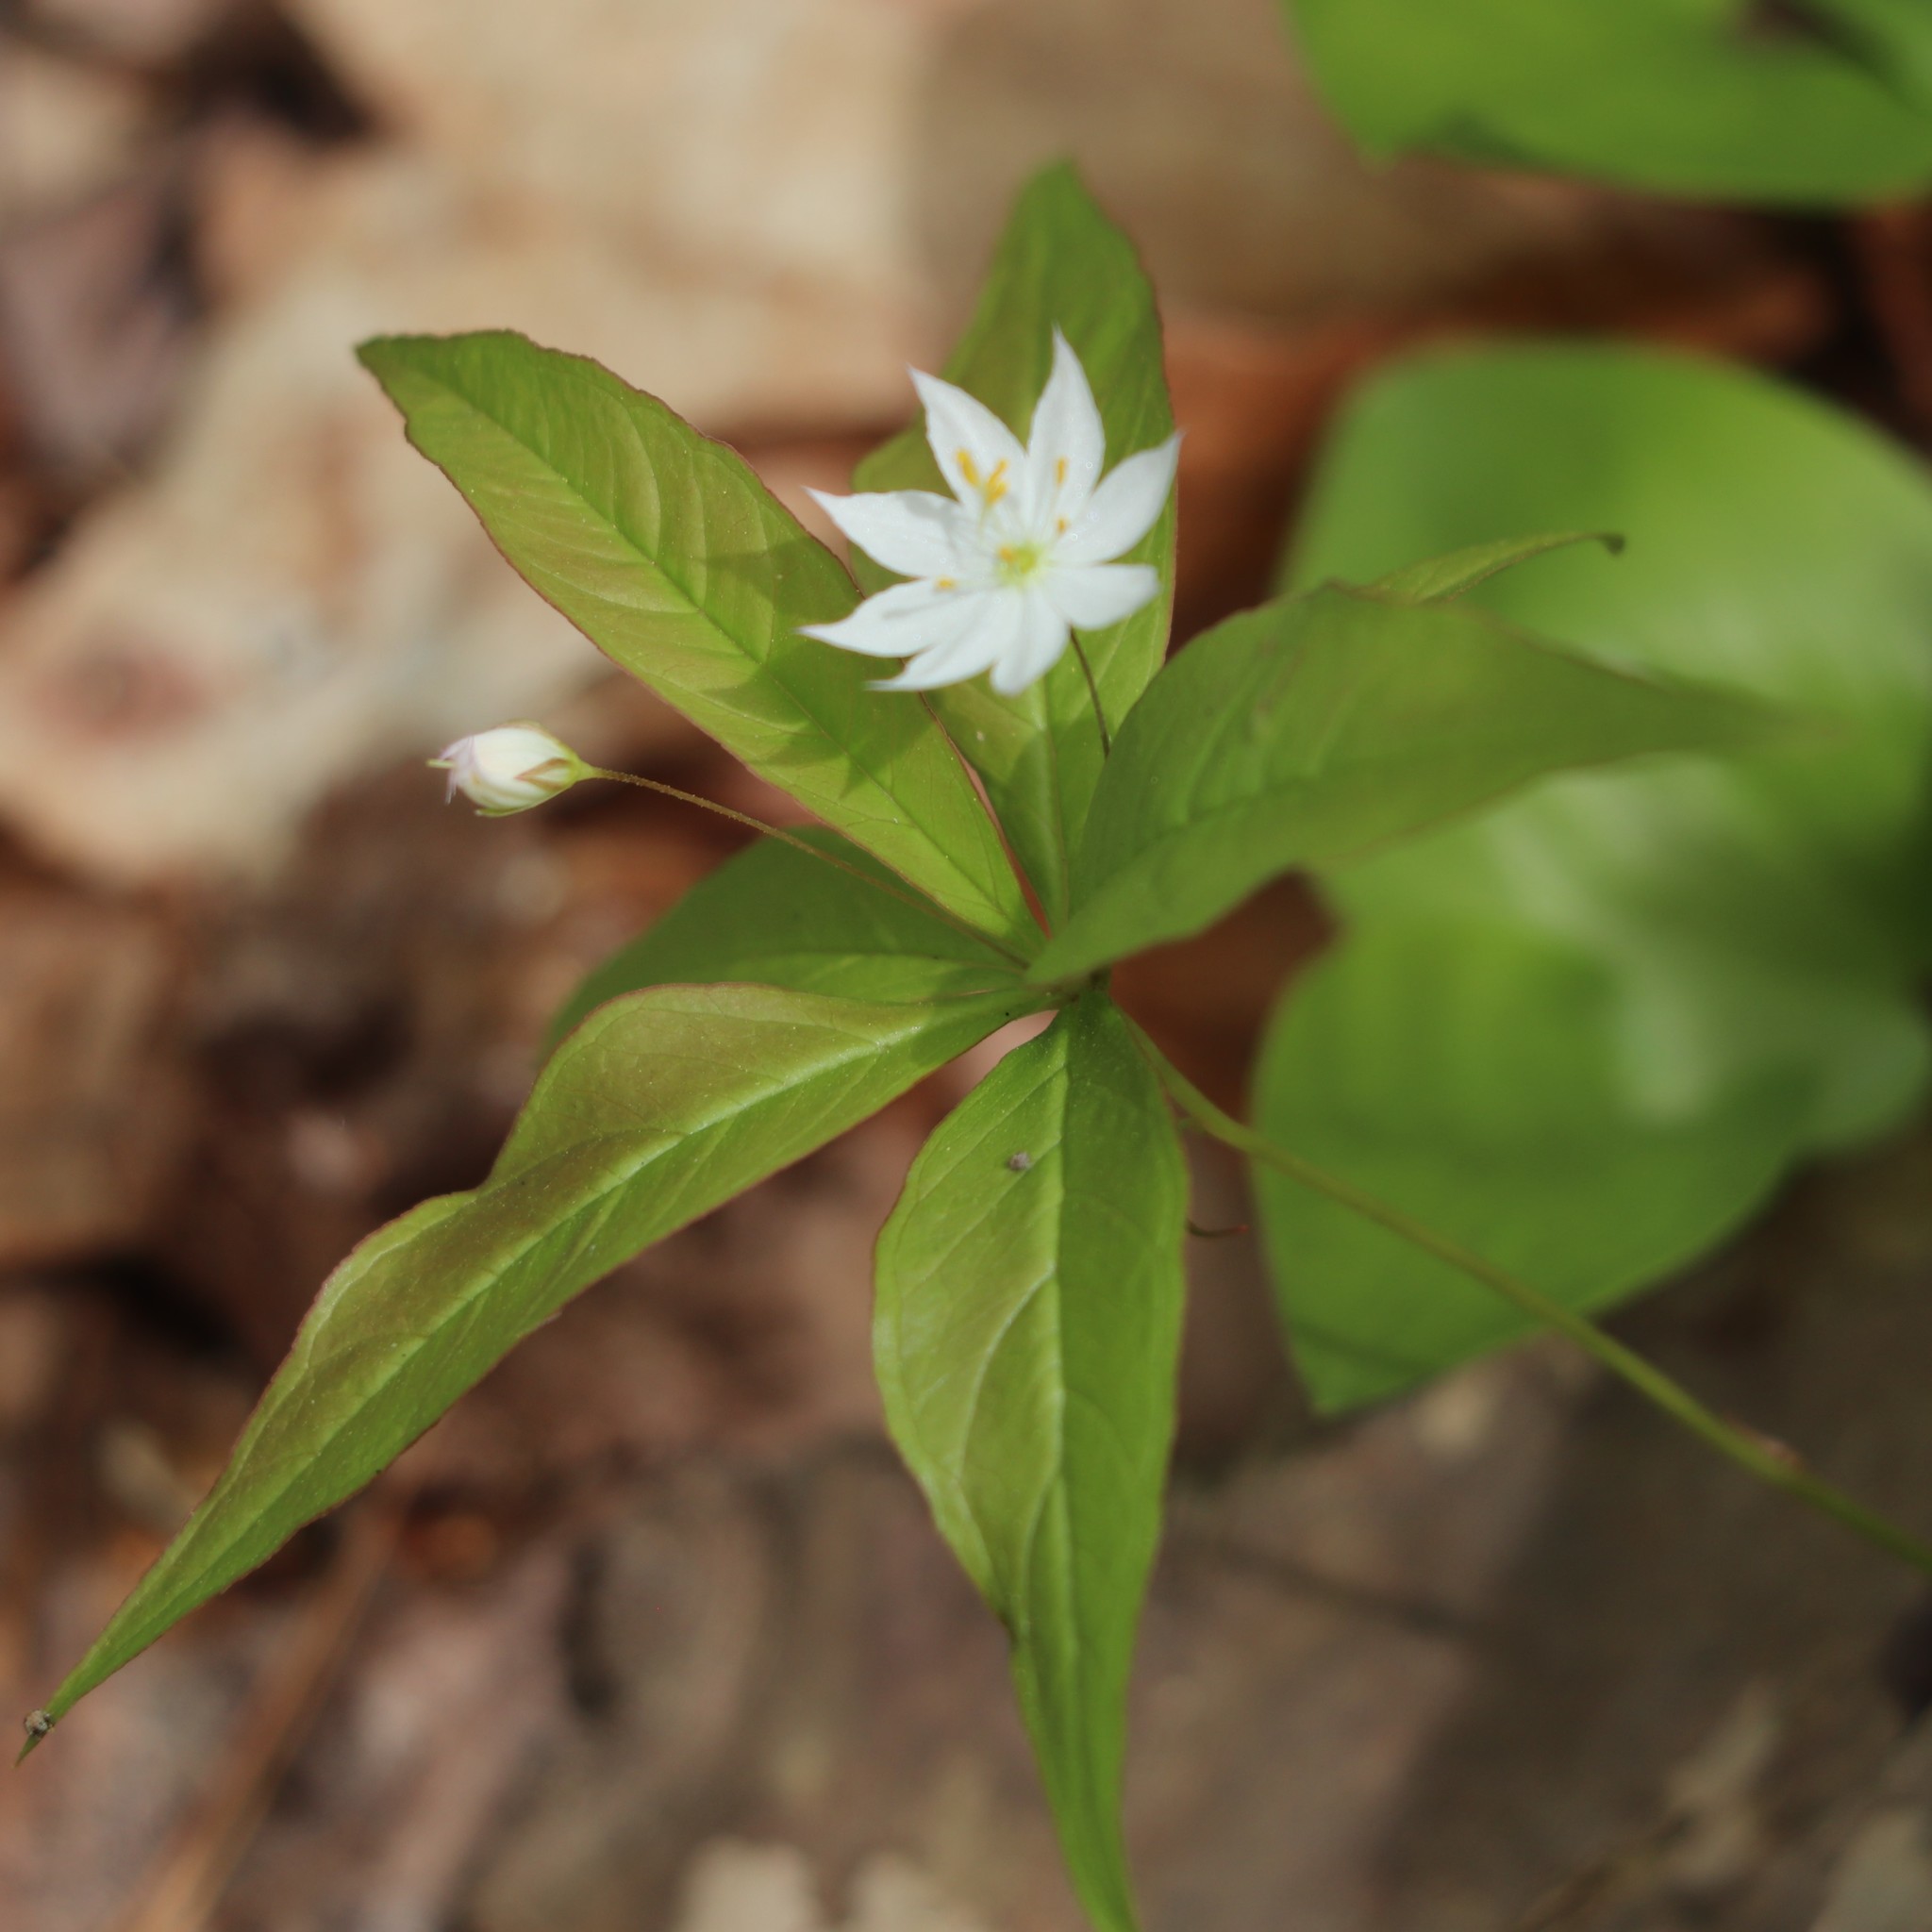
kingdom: Plantae
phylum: Tracheophyta
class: Magnoliopsida
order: Ericales
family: Primulaceae
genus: Lysimachia
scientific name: Lysimachia borealis
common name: American starflower
